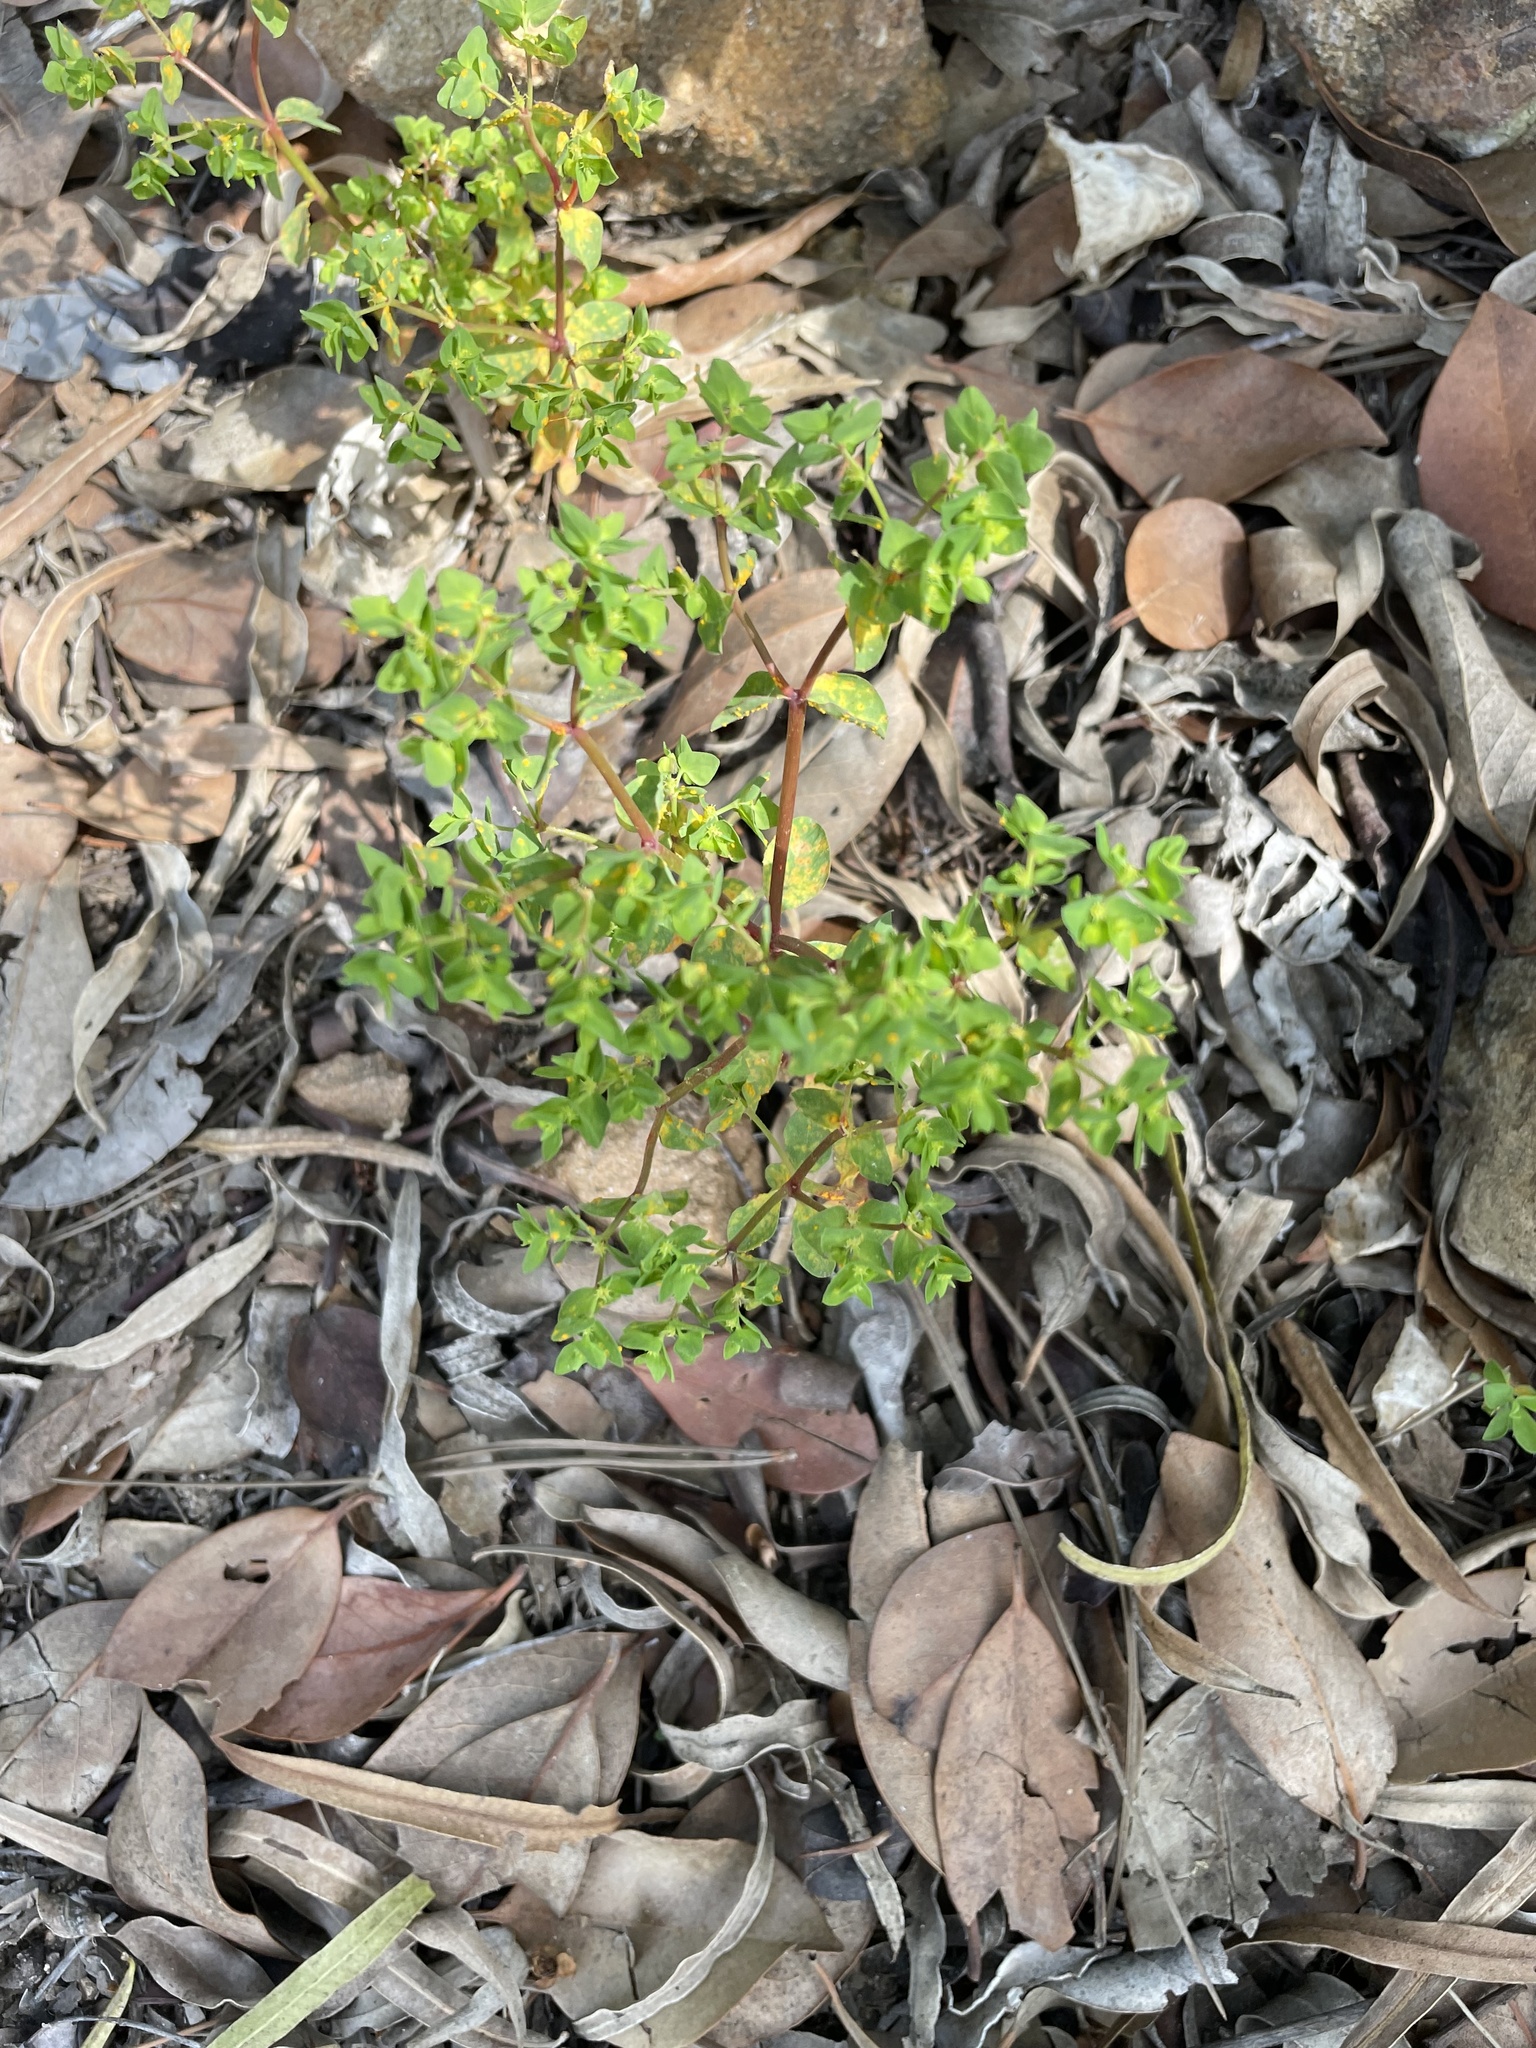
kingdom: Plantae
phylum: Tracheophyta
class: Magnoliopsida
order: Malpighiales
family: Euphorbiaceae
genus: Euphorbia
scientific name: Euphorbia peplus
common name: Petty spurge
